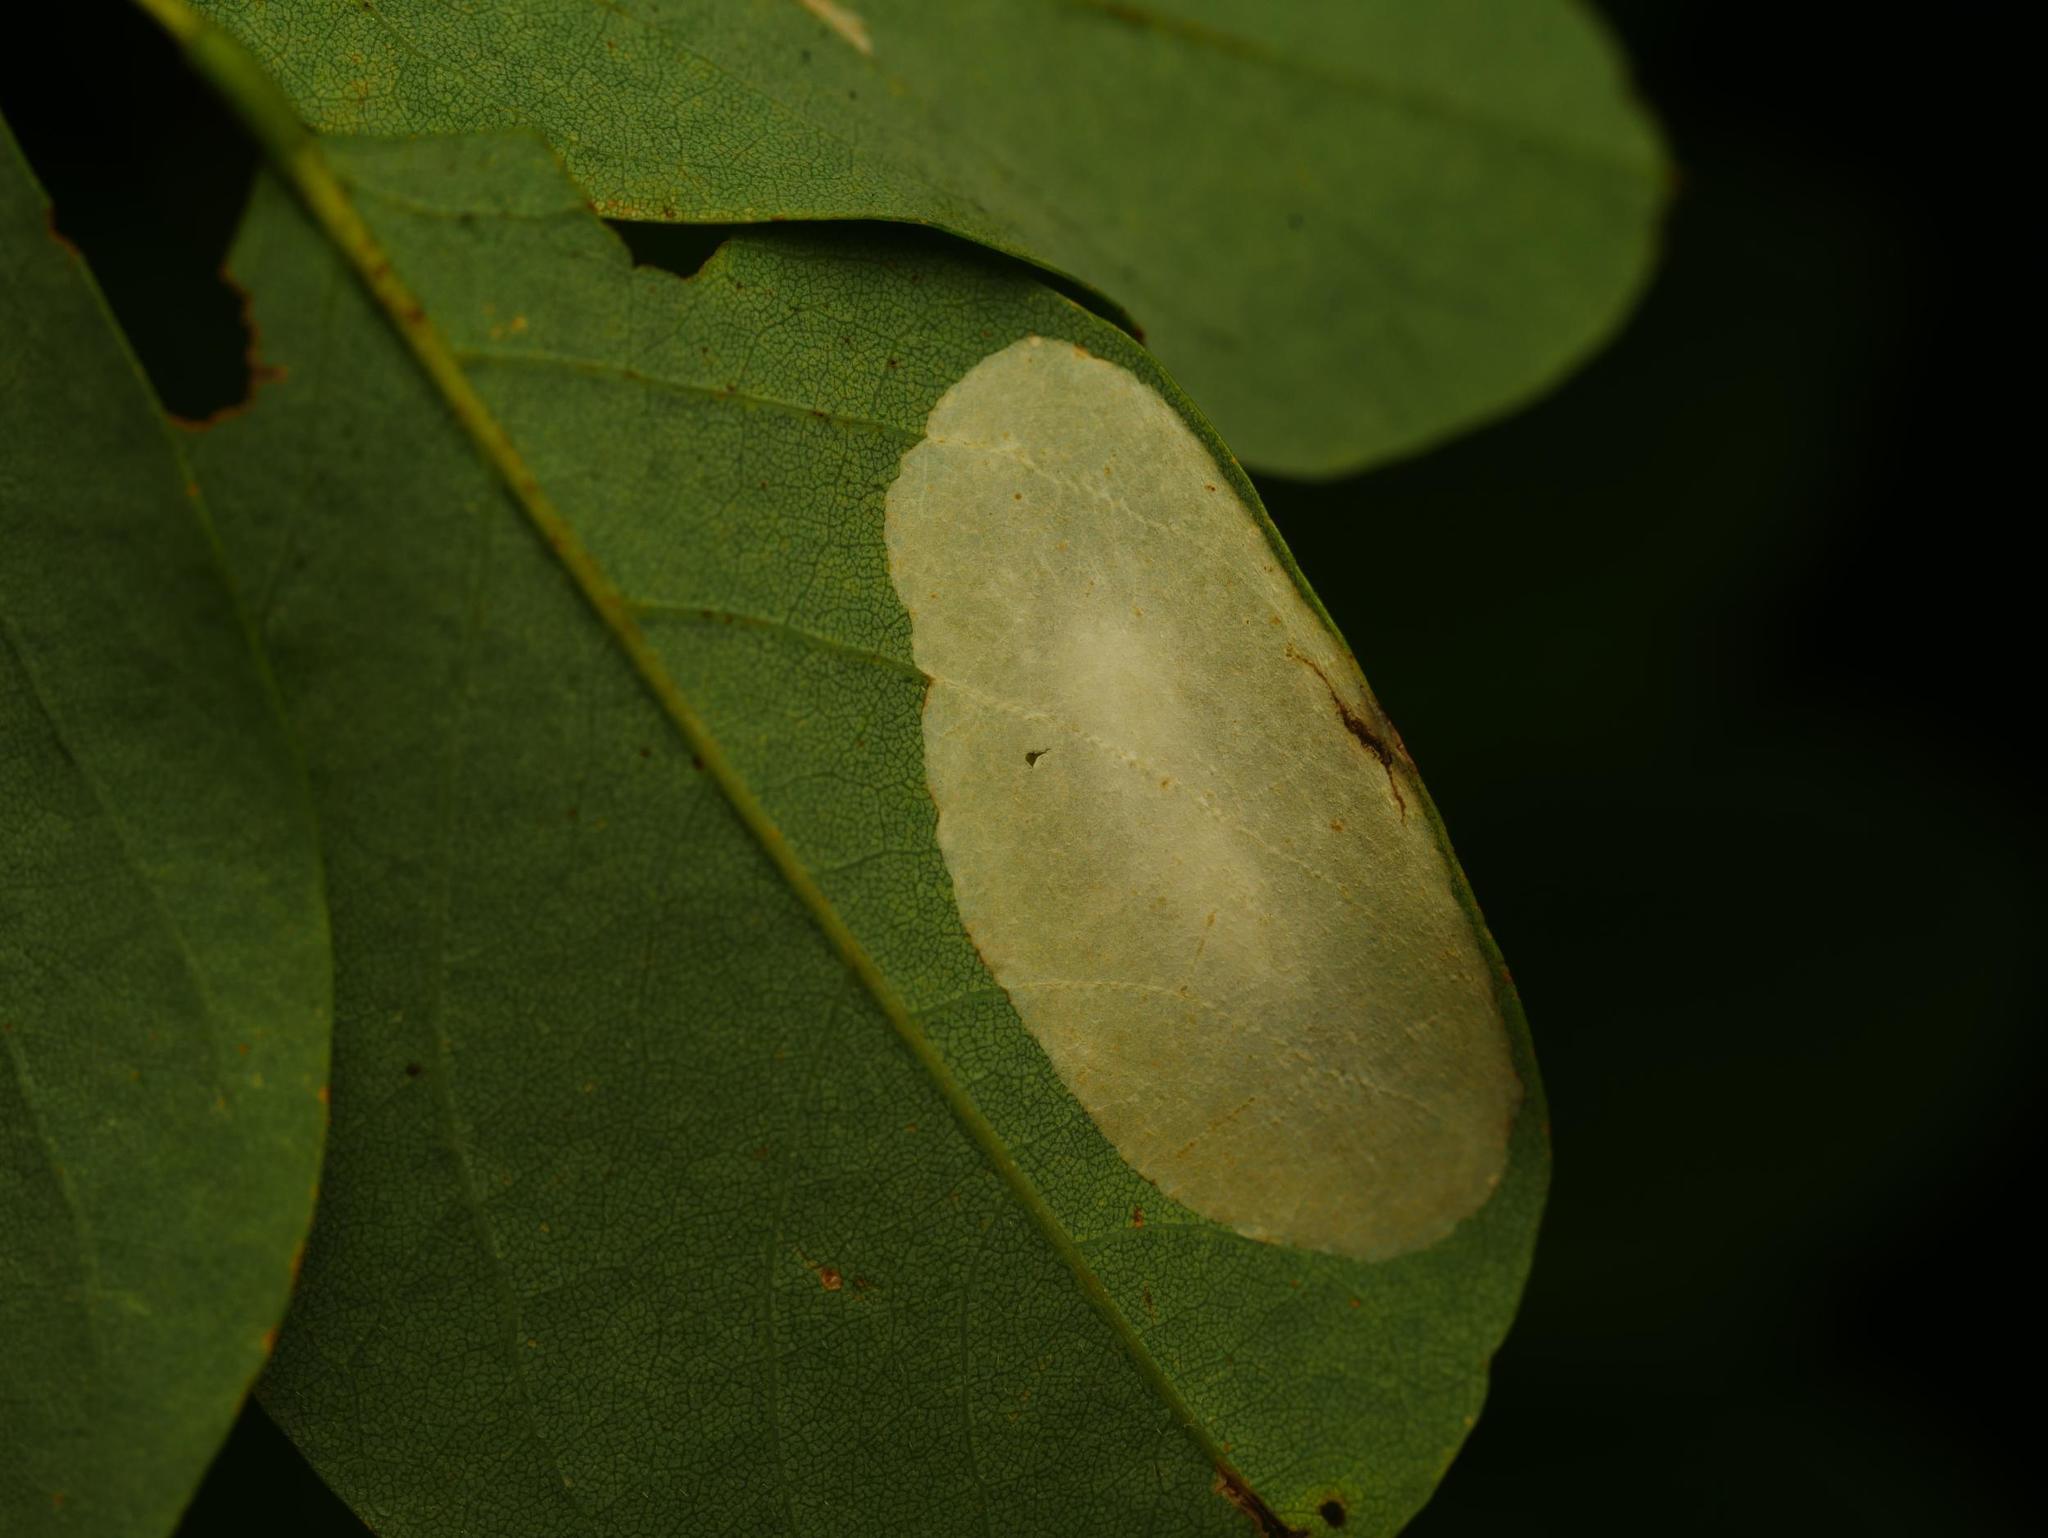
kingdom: Animalia
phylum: Arthropoda
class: Insecta
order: Lepidoptera
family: Gracillariidae
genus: Macrosaccus
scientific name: Macrosaccus robiniella
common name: Leaf blotch miner moth
